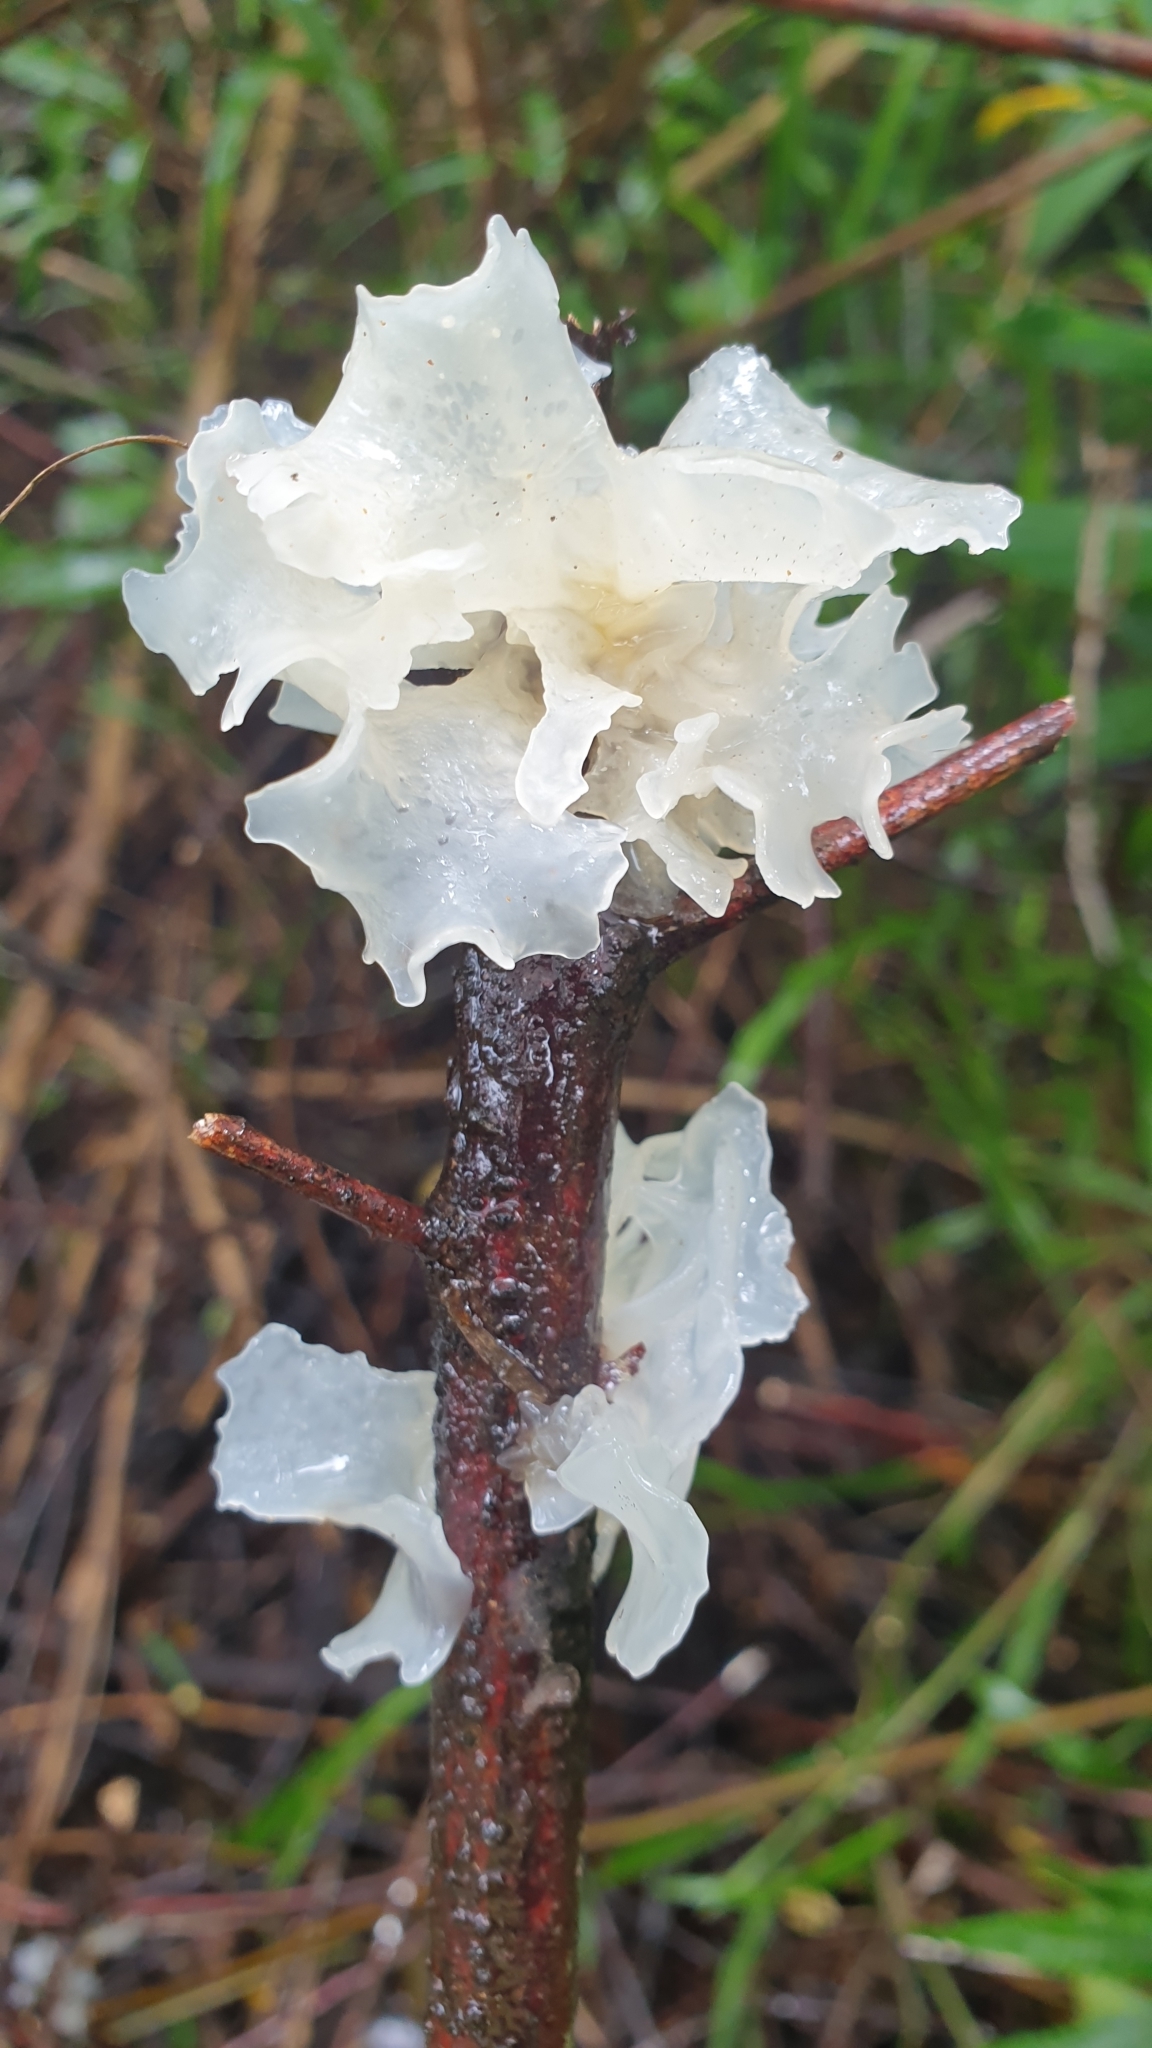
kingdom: Fungi
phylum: Basidiomycota
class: Tremellomycetes
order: Tremellales
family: Tremellaceae
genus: Tremella
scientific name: Tremella fuciformis
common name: Snow fungus
